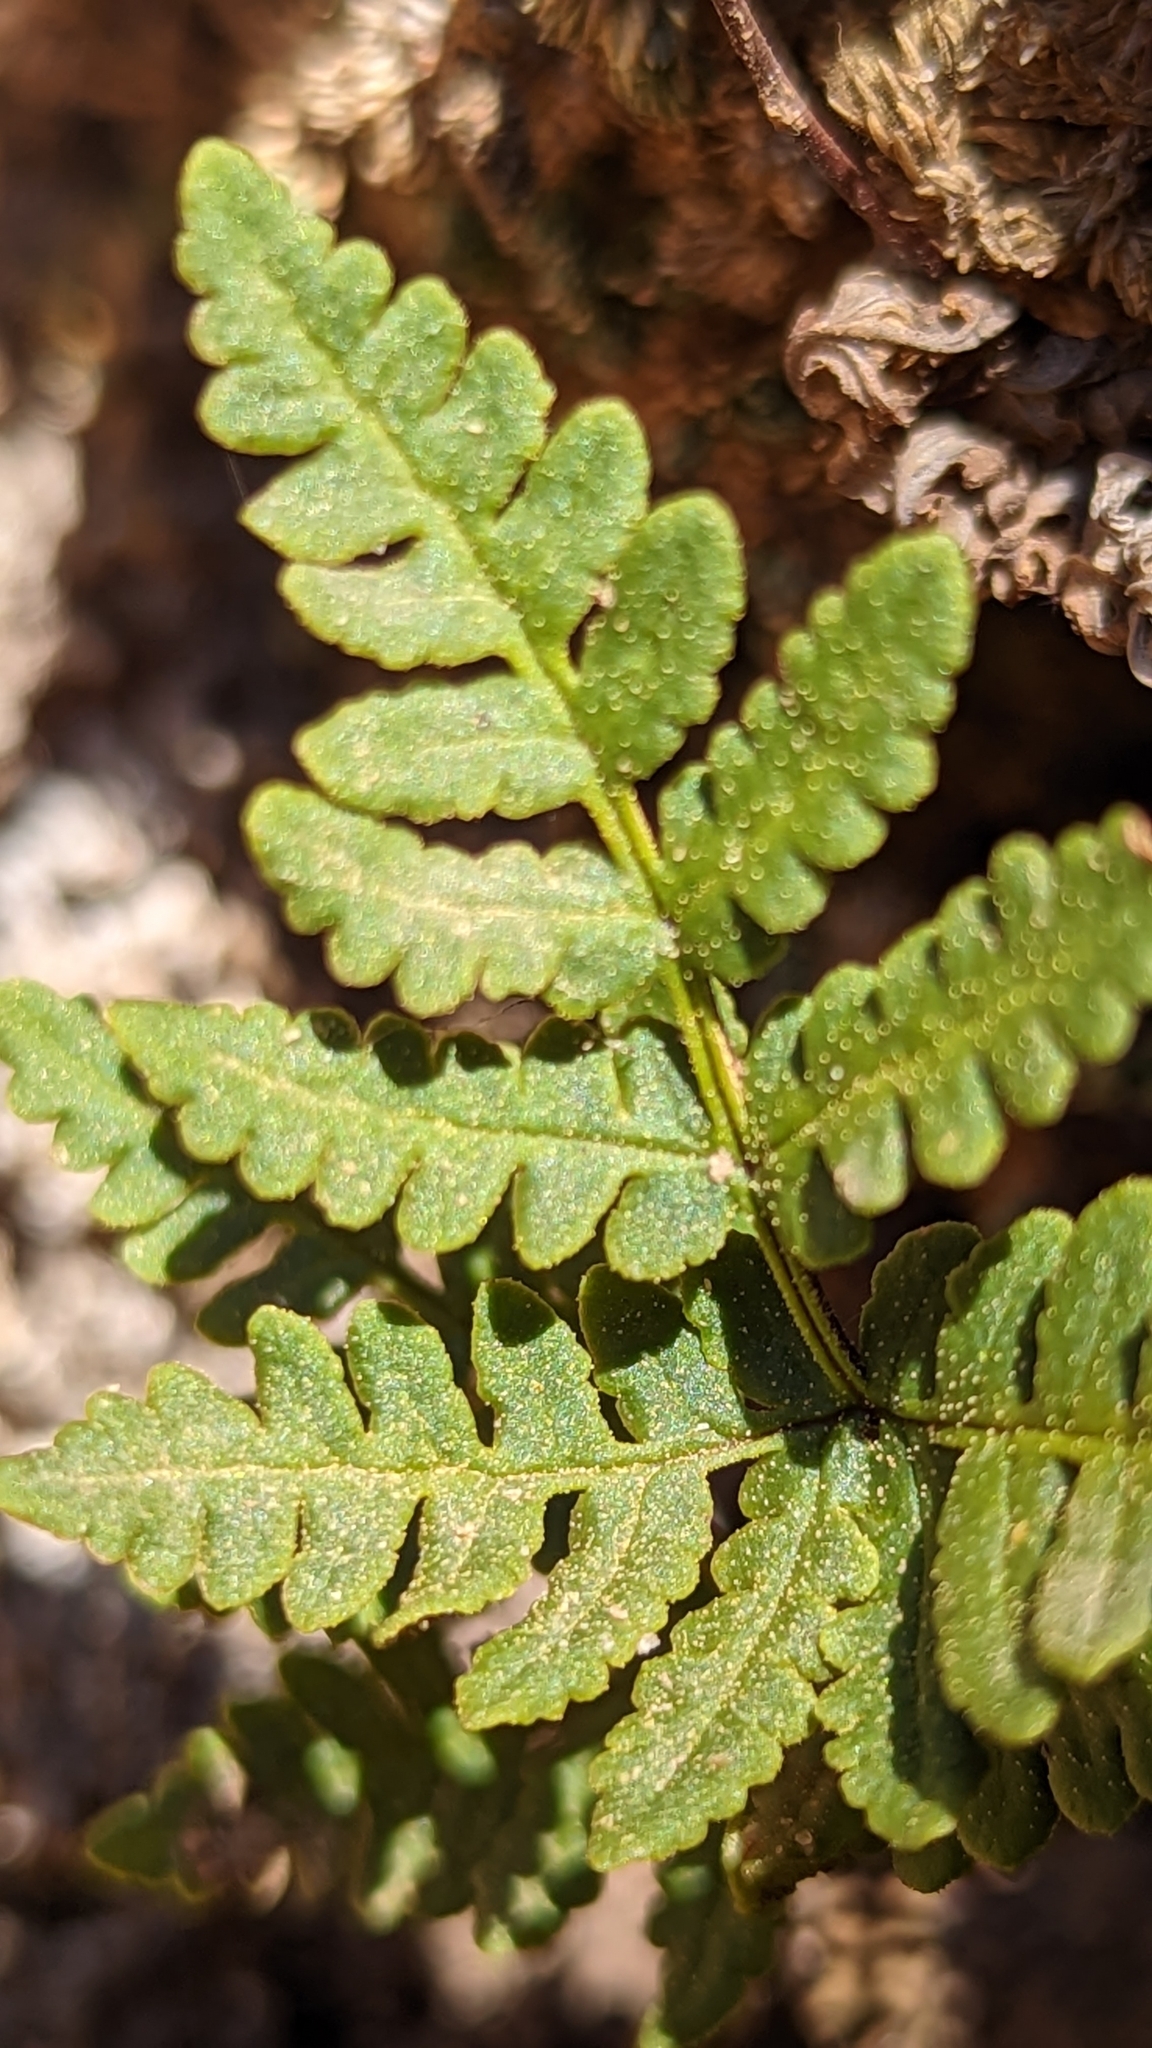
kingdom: Plantae
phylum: Tracheophyta
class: Polypodiopsida
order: Polypodiales
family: Pteridaceae
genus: Pentagramma
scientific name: Pentagramma triangularis
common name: Gold fern
